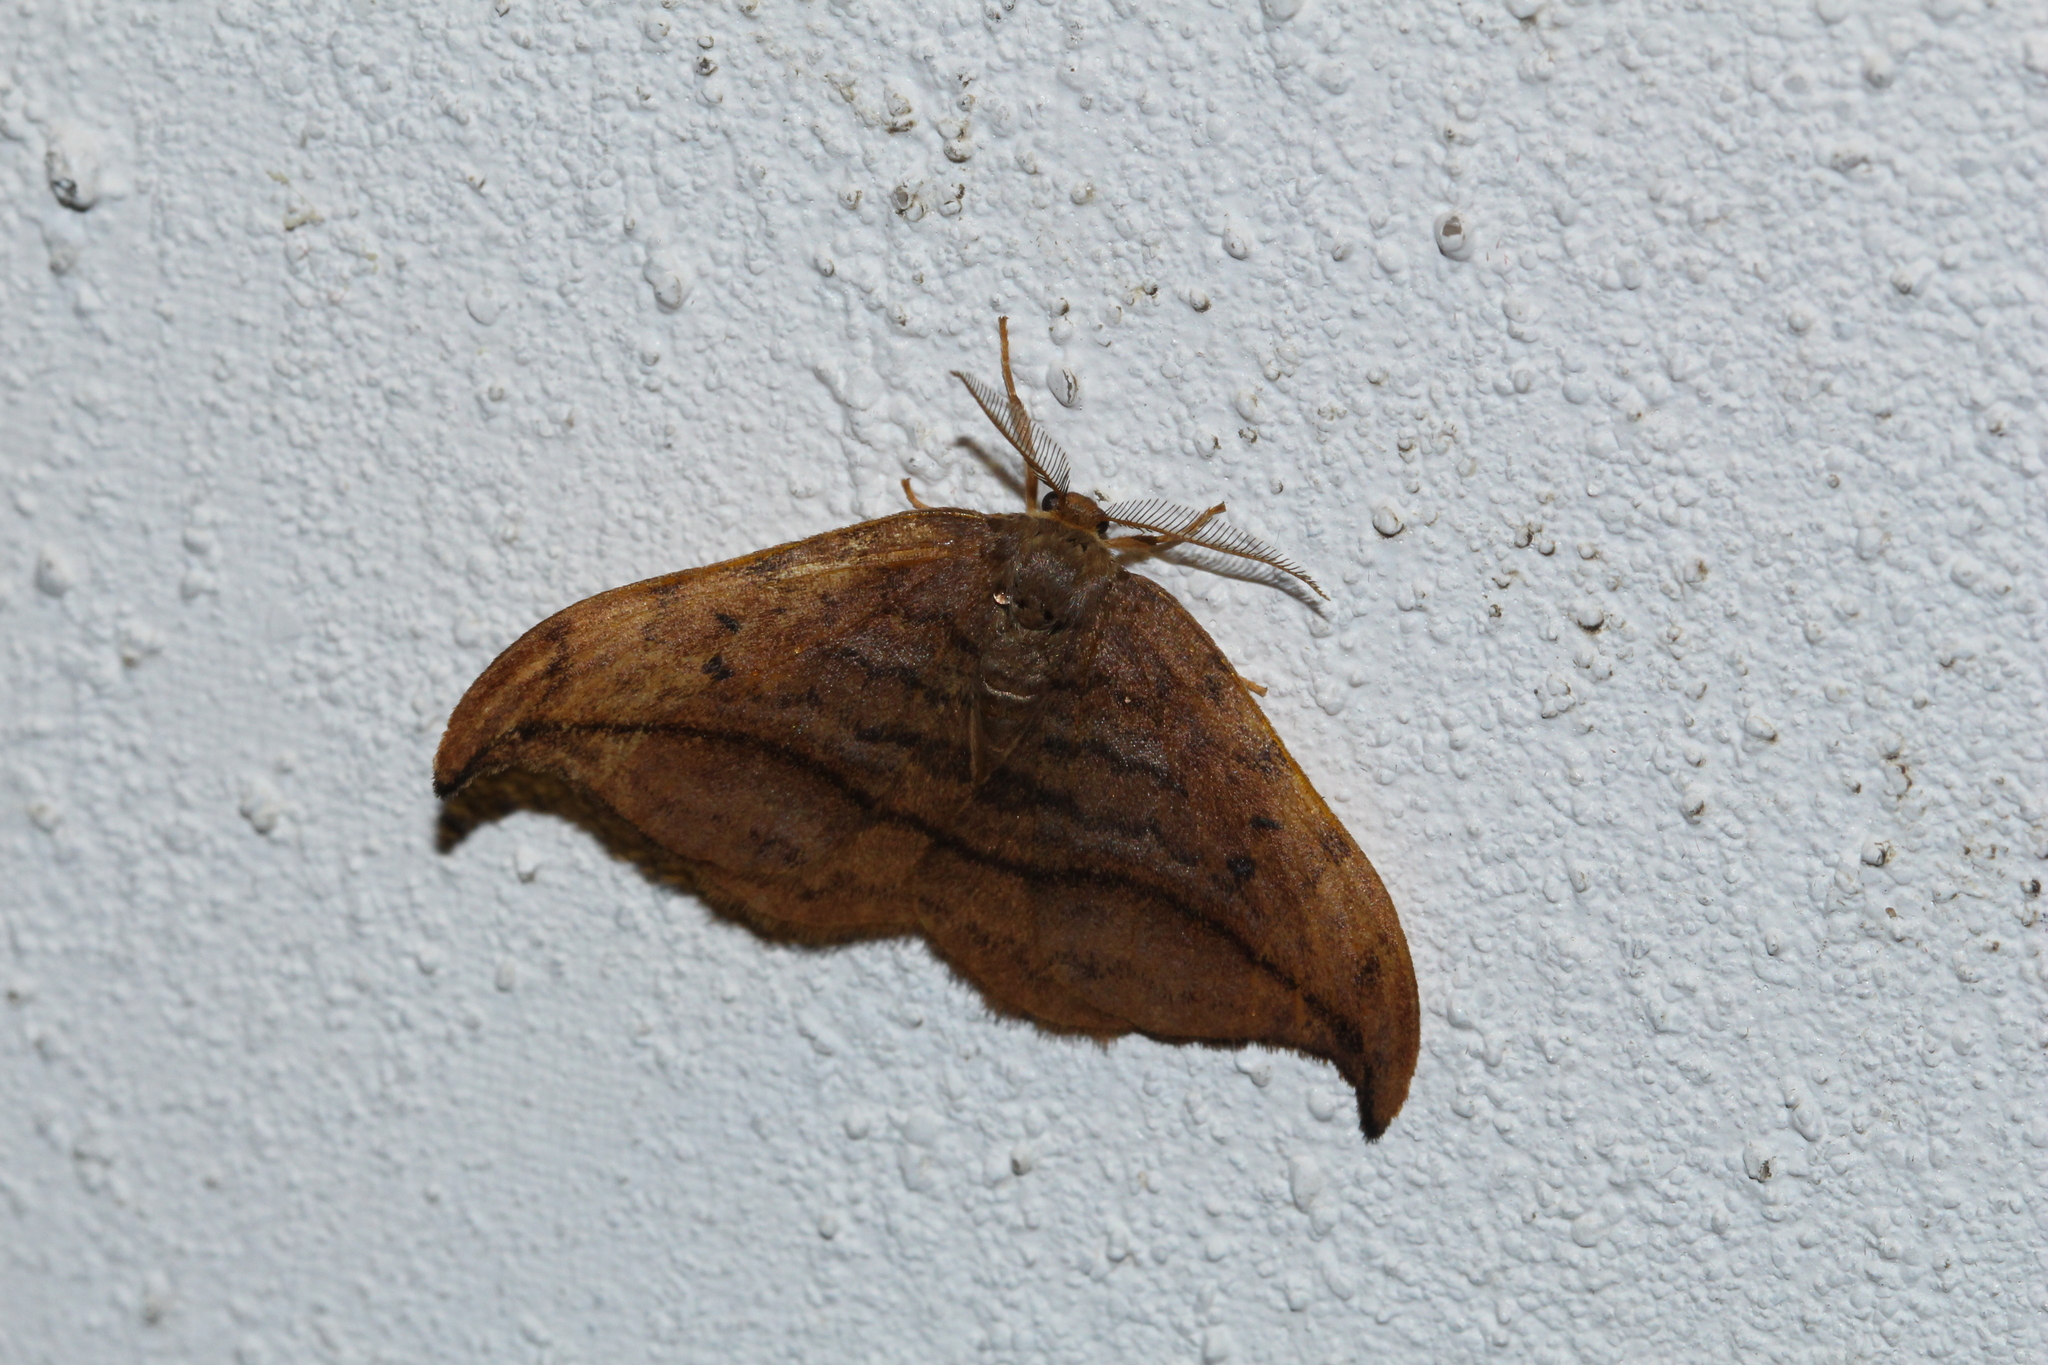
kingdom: Animalia
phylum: Arthropoda
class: Insecta
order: Lepidoptera
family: Drepanidae
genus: Drepana
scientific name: Drepana curvatula
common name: Dusky hook-tip
